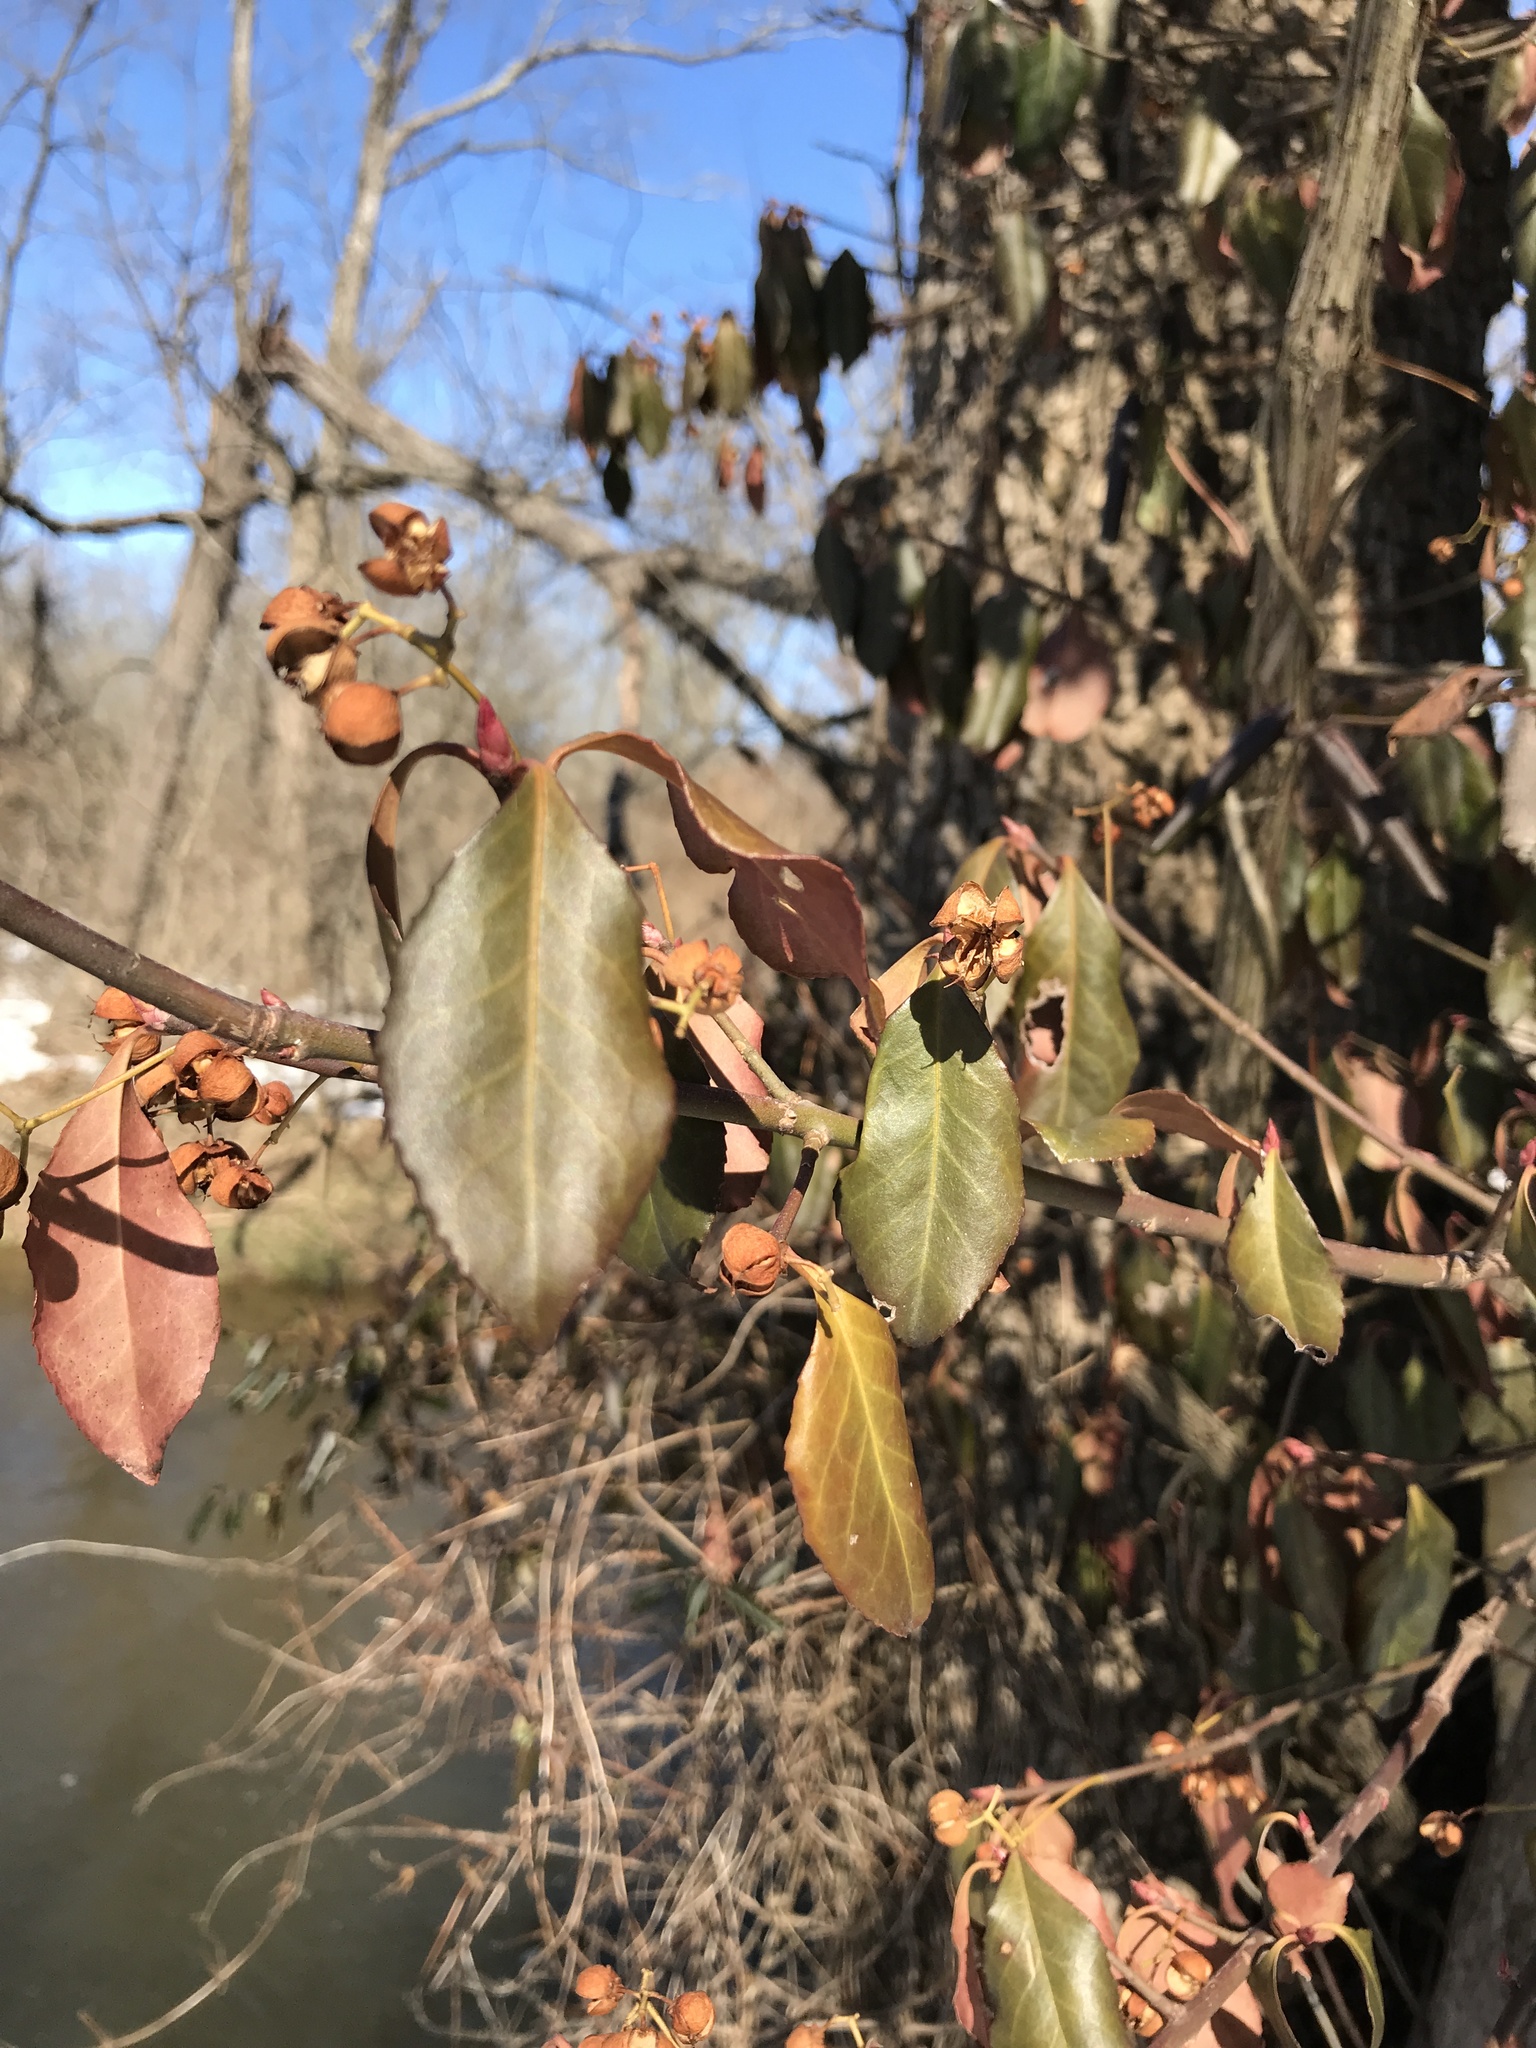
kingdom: Plantae
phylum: Tracheophyta
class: Magnoliopsida
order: Celastrales
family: Celastraceae
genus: Euonymus
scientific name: Euonymus fortunei
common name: Climbing euonymus
